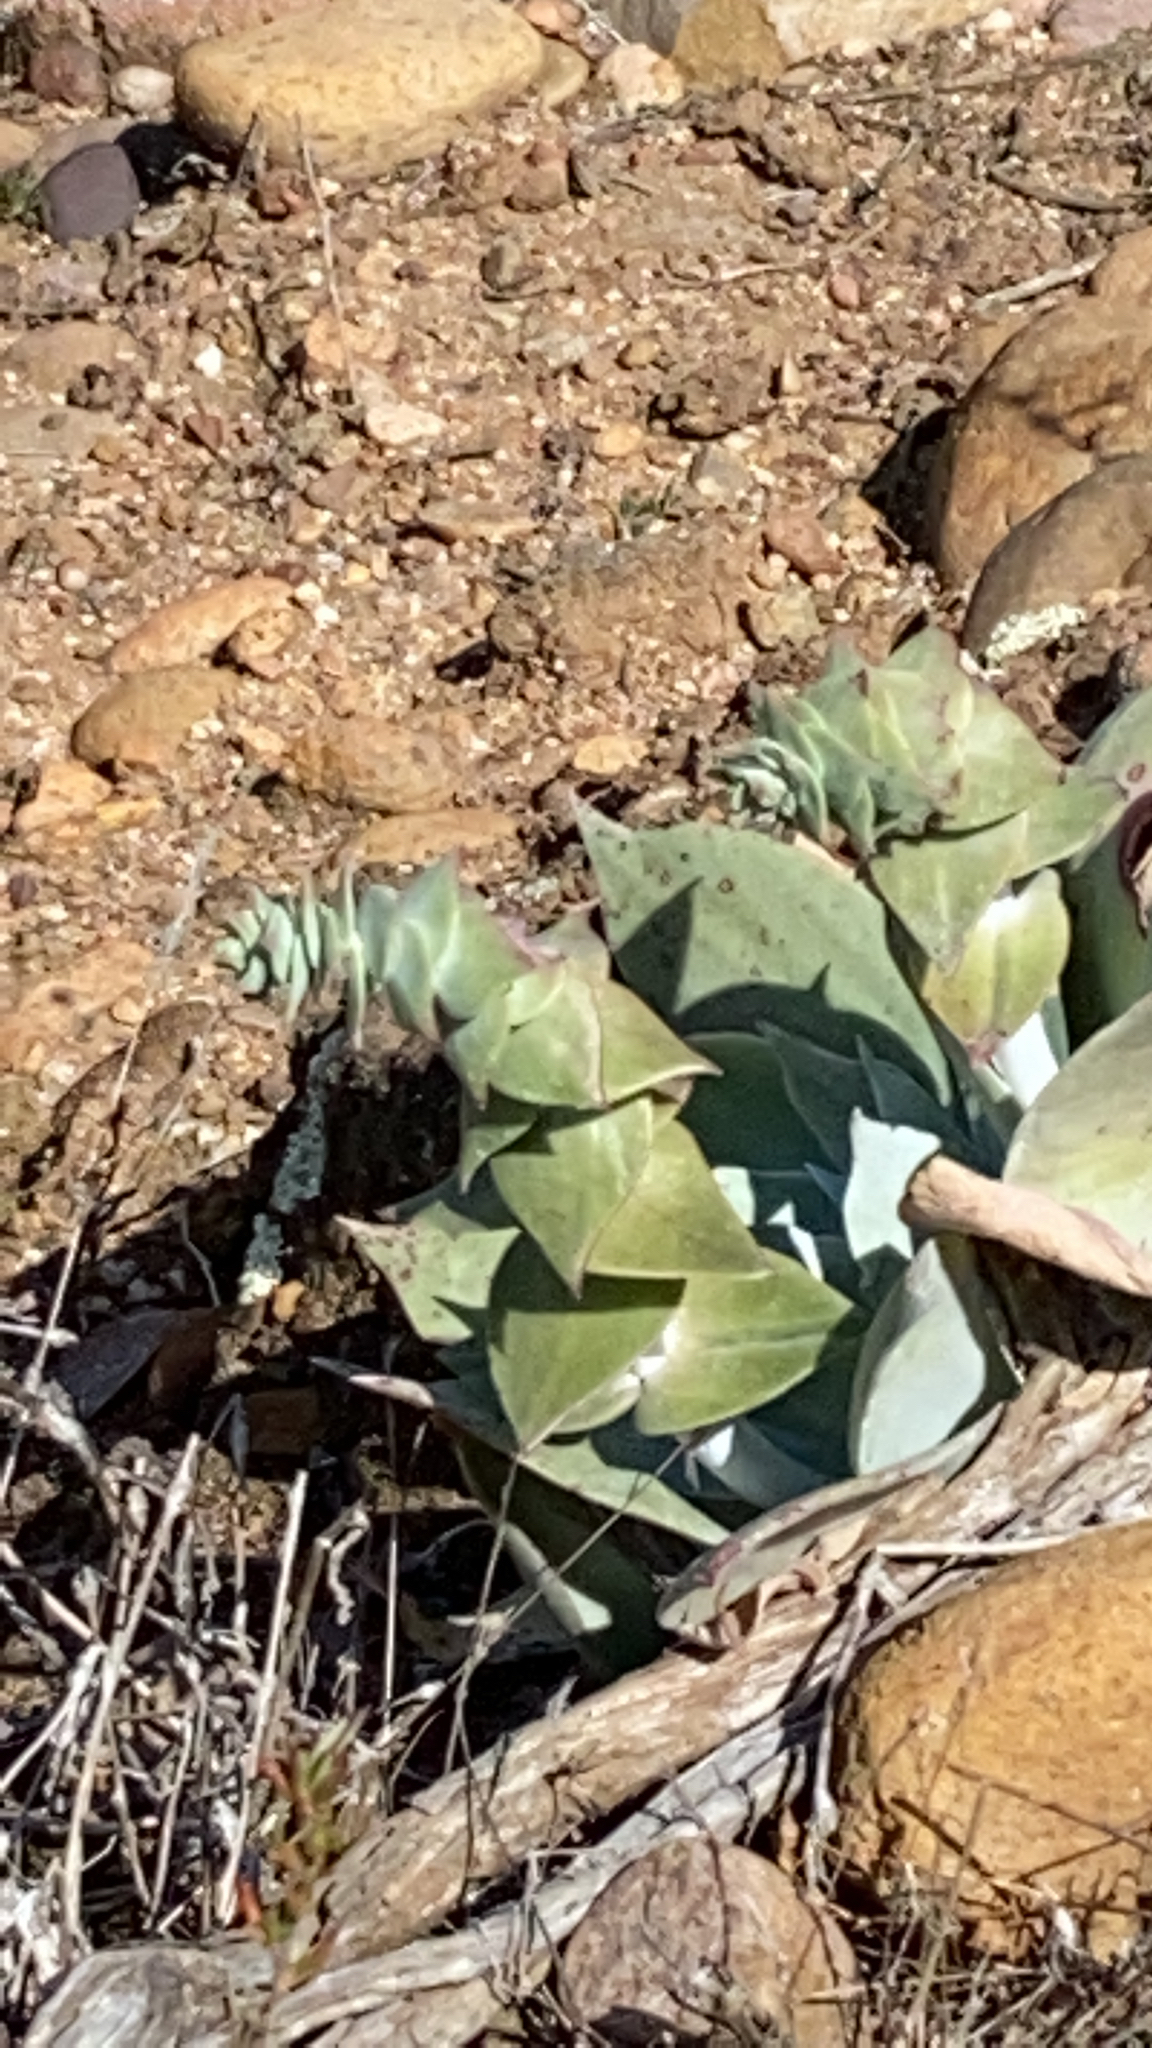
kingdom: Plantae
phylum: Tracheophyta
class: Magnoliopsida
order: Saxifragales
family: Crassulaceae
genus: Dudleya
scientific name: Dudleya pulverulenta
